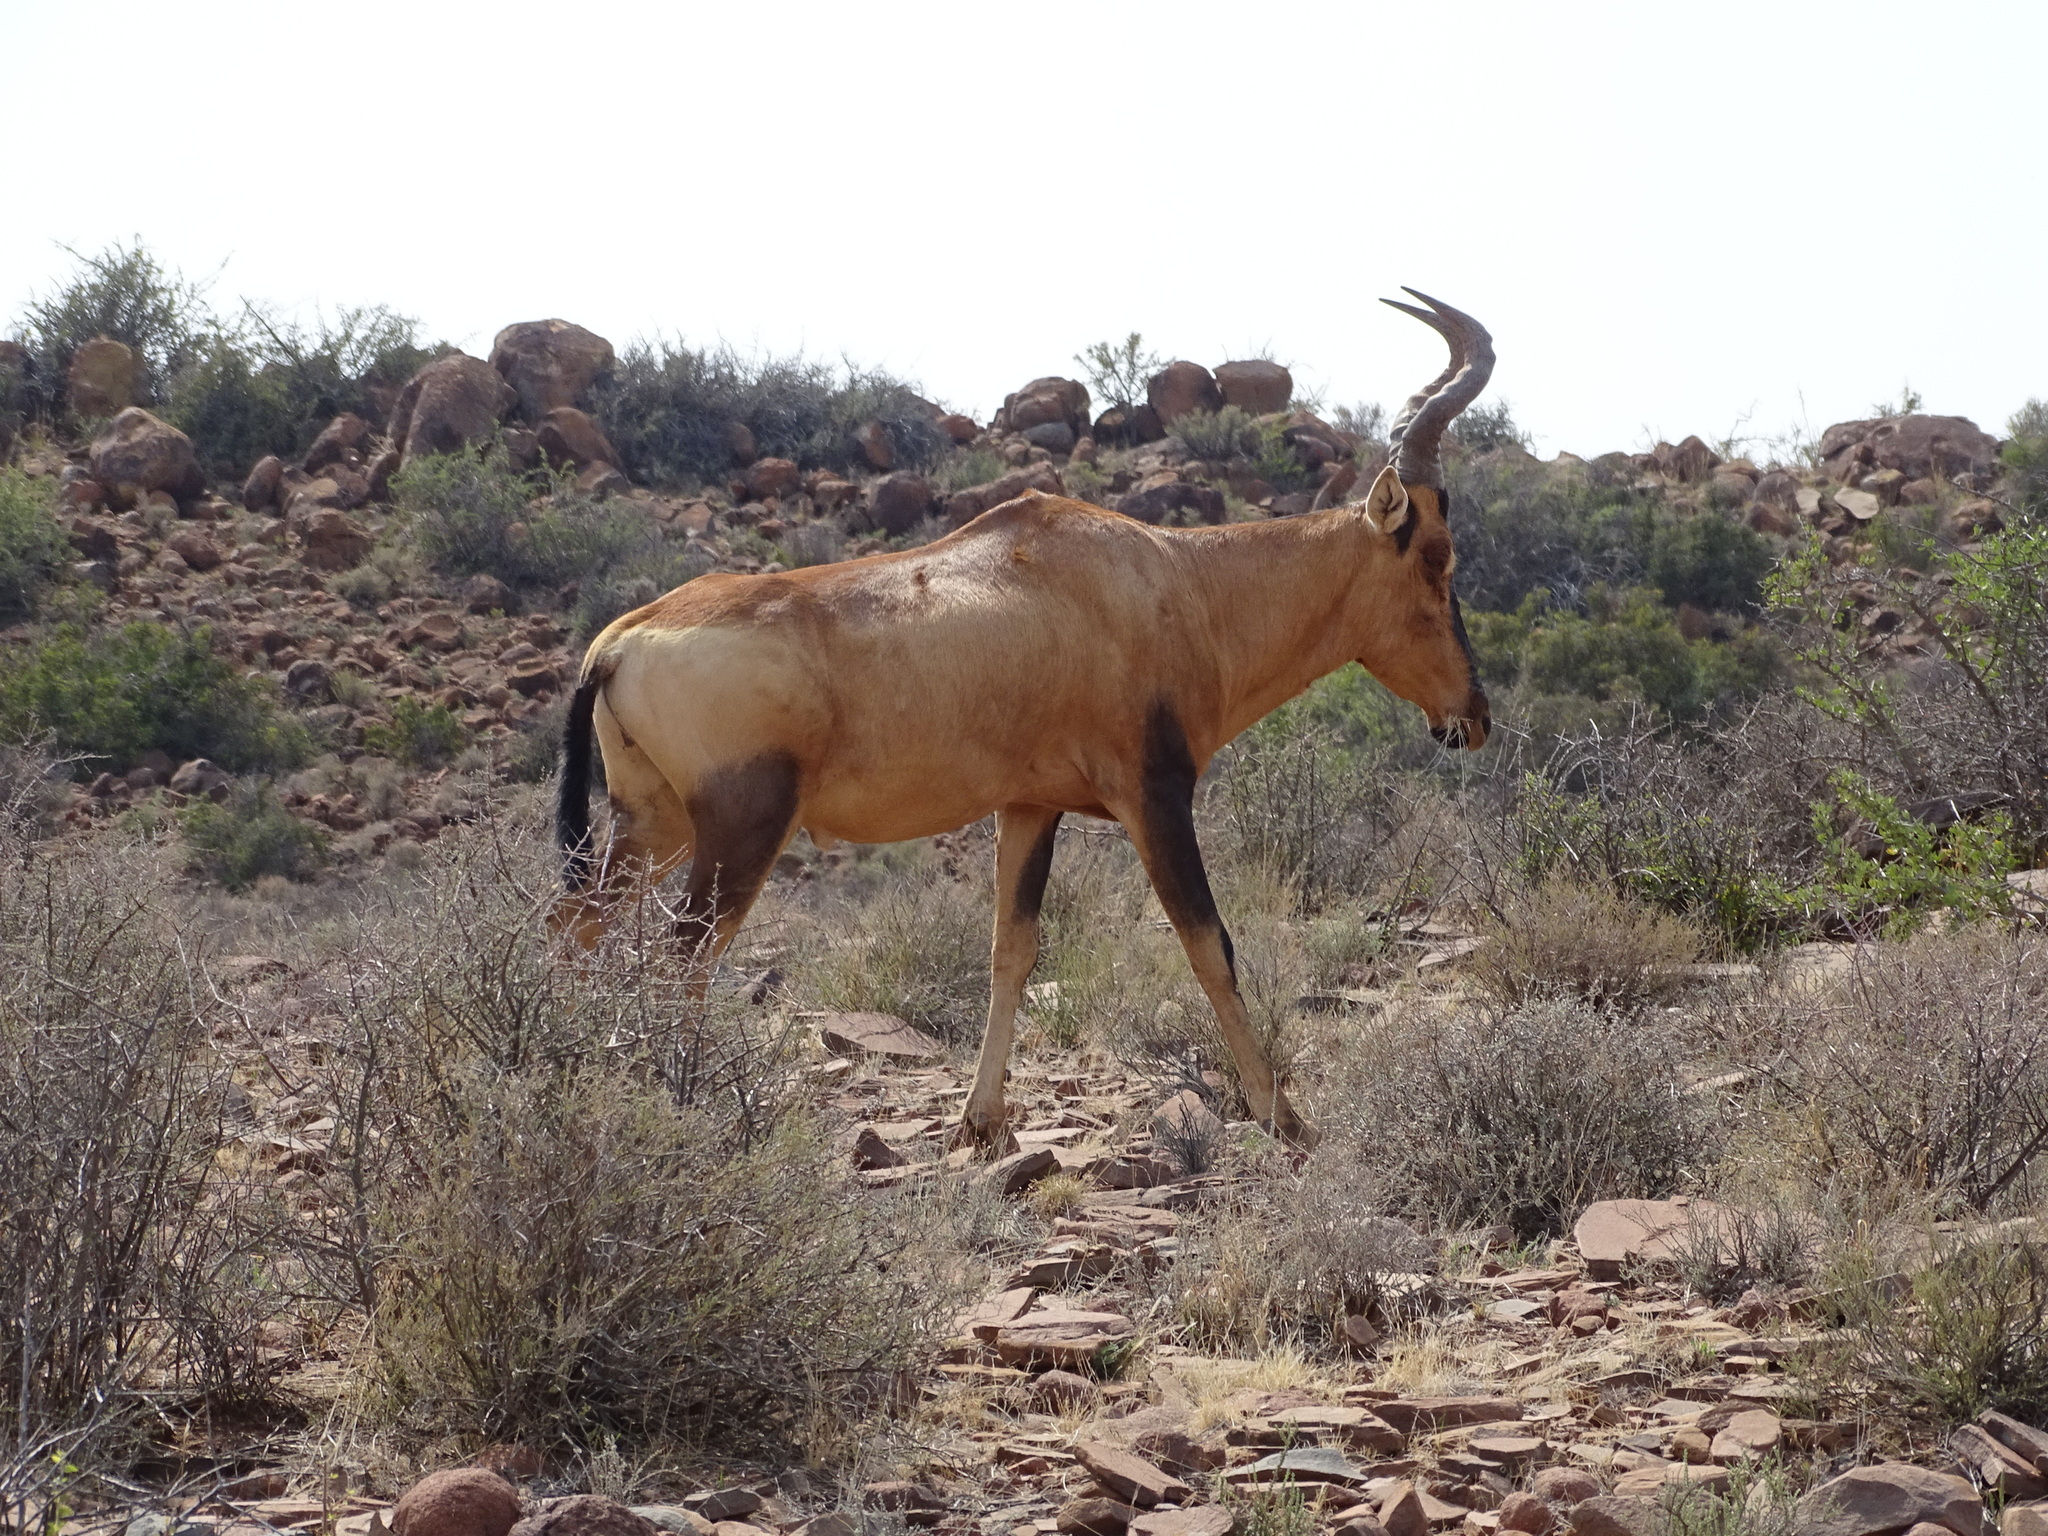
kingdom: Animalia
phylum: Chordata
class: Mammalia
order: Artiodactyla
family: Bovidae
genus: Alcelaphus
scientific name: Alcelaphus caama
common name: Red hartebeest
